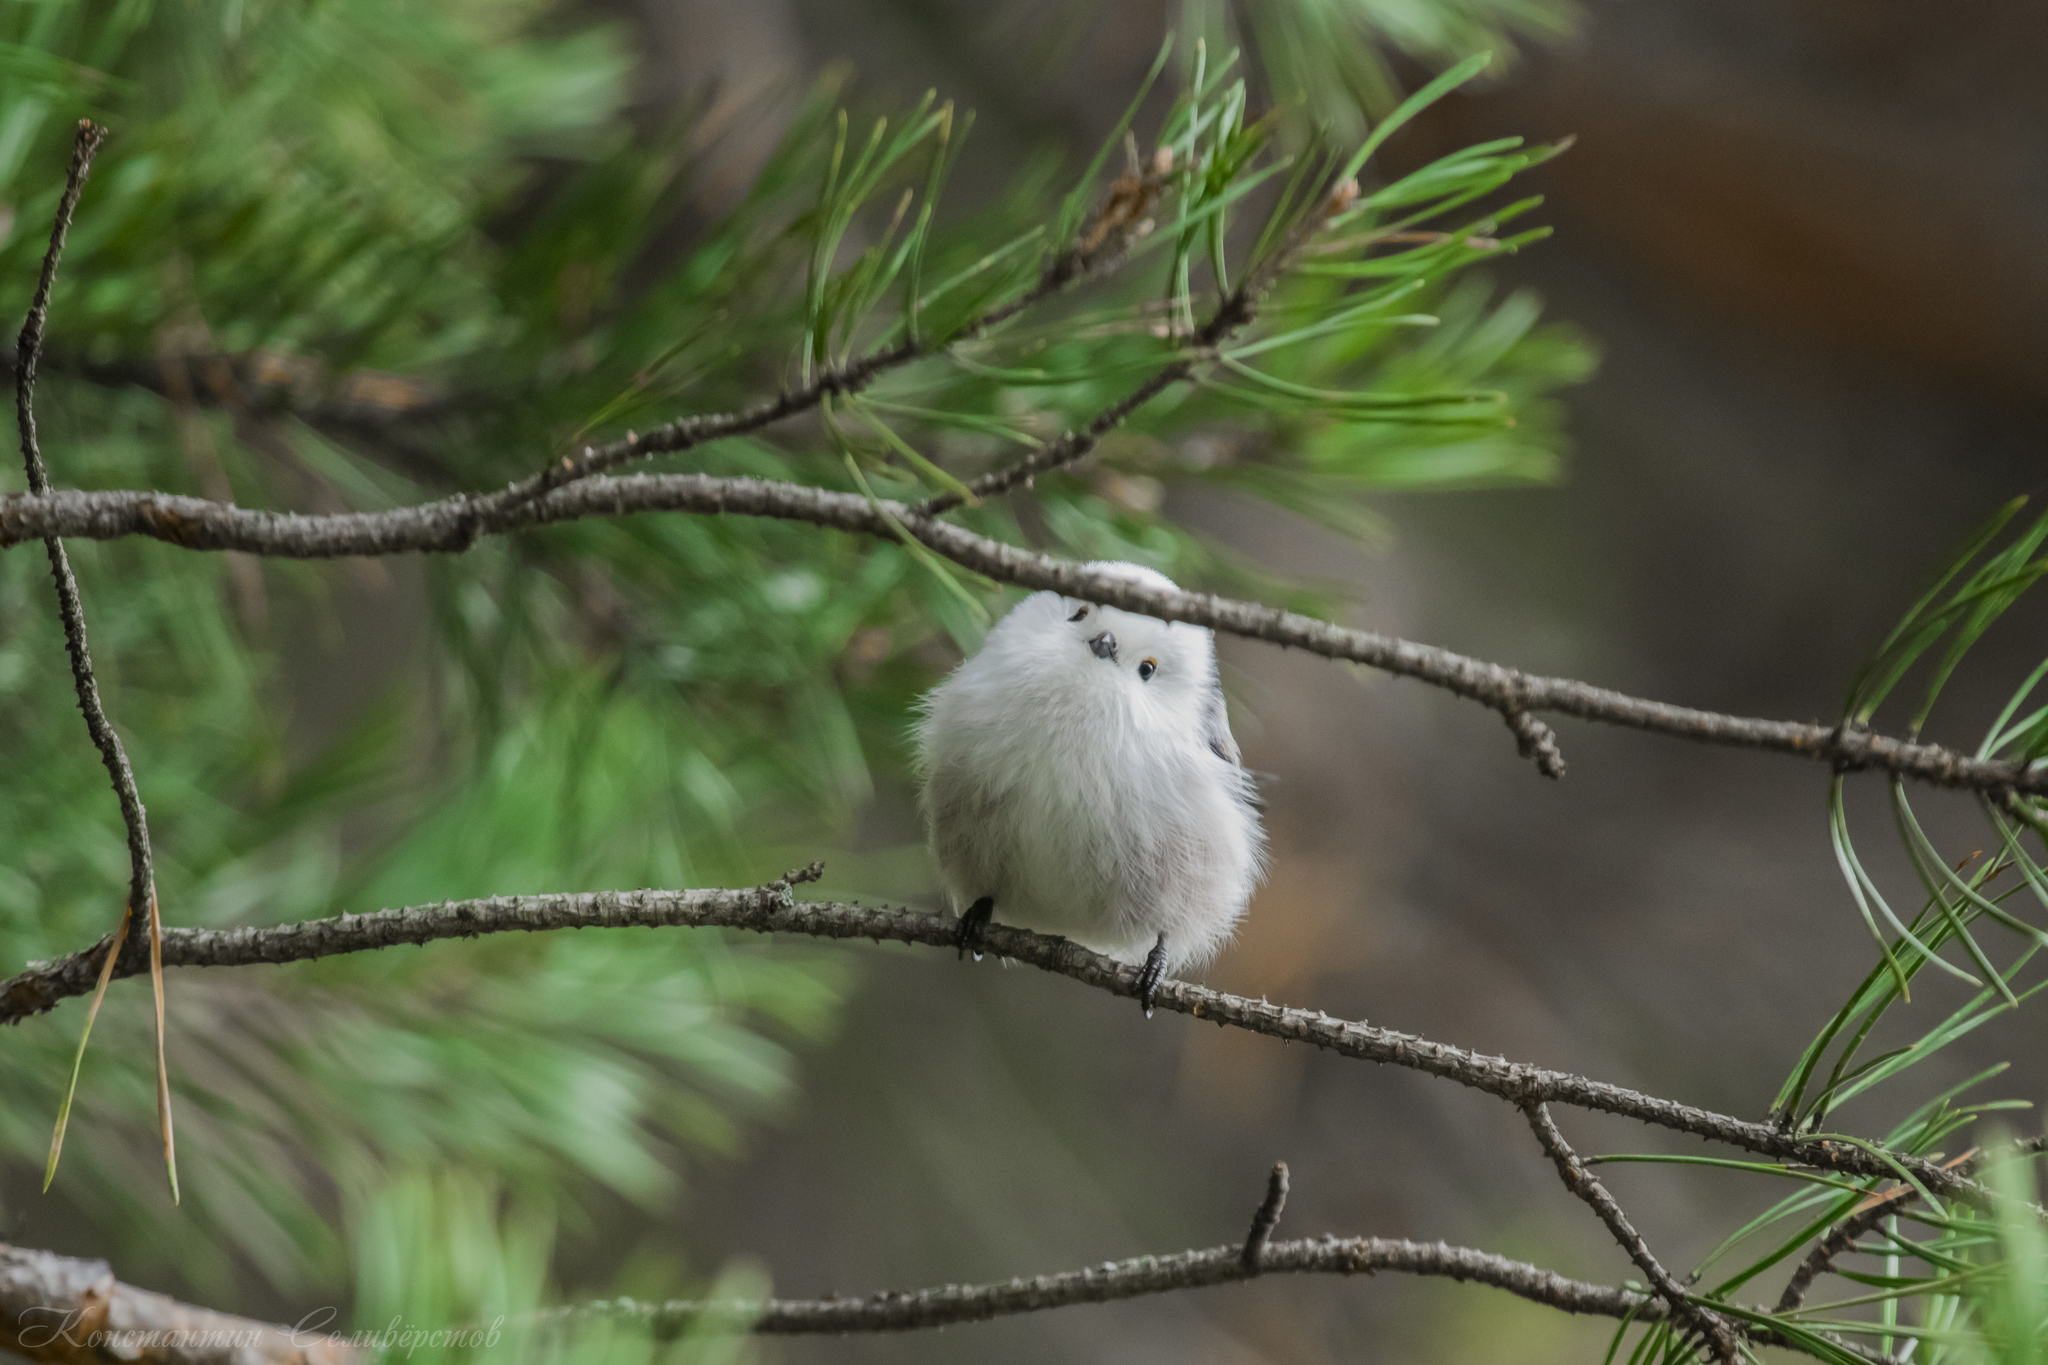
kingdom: Animalia
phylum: Chordata
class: Aves
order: Passeriformes
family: Aegithalidae
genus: Aegithalos
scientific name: Aegithalos caudatus
